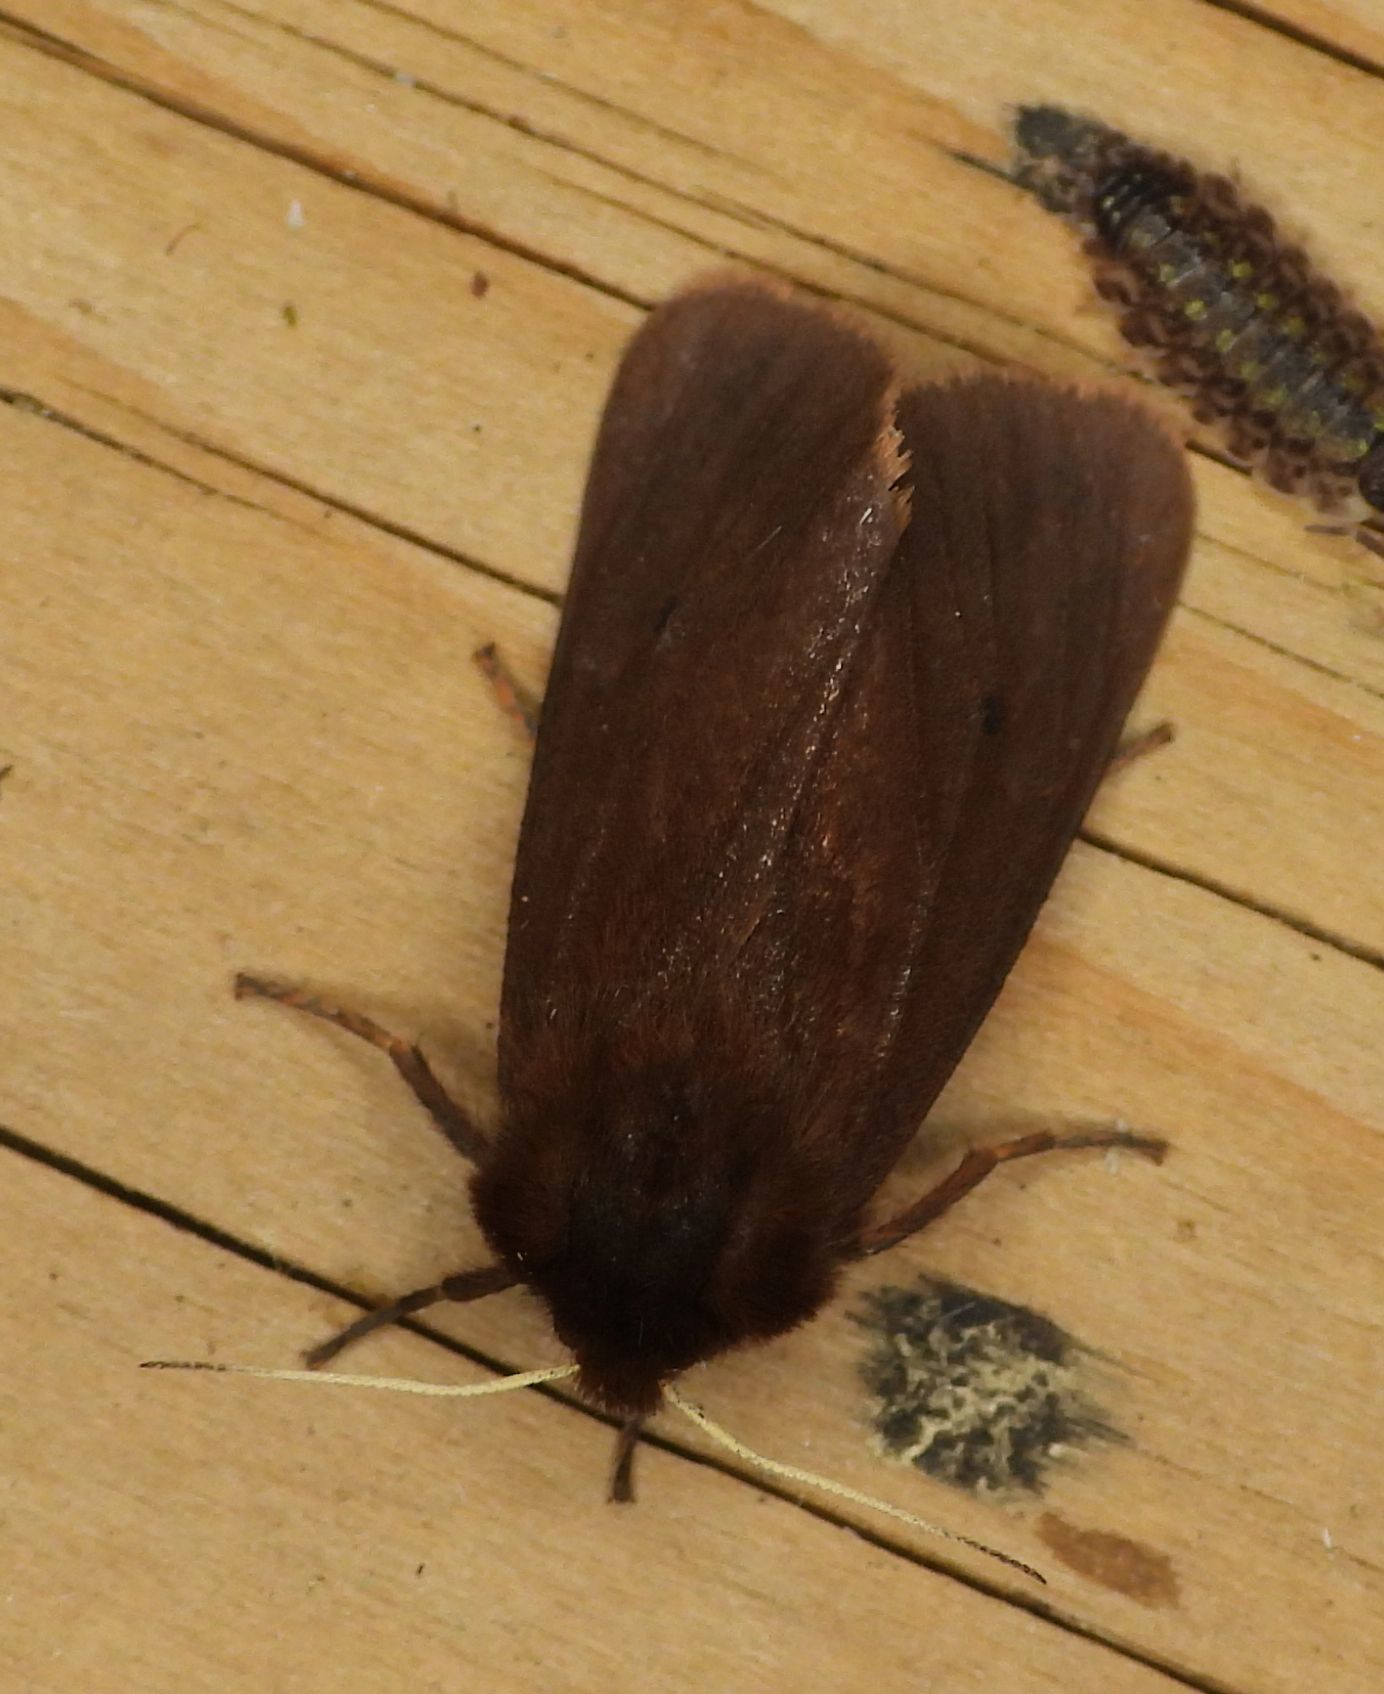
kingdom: Animalia
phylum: Arthropoda
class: Insecta
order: Lepidoptera
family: Erebidae
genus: Phragmatobia
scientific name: Phragmatobia fuliginosa
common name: Ruby tiger
